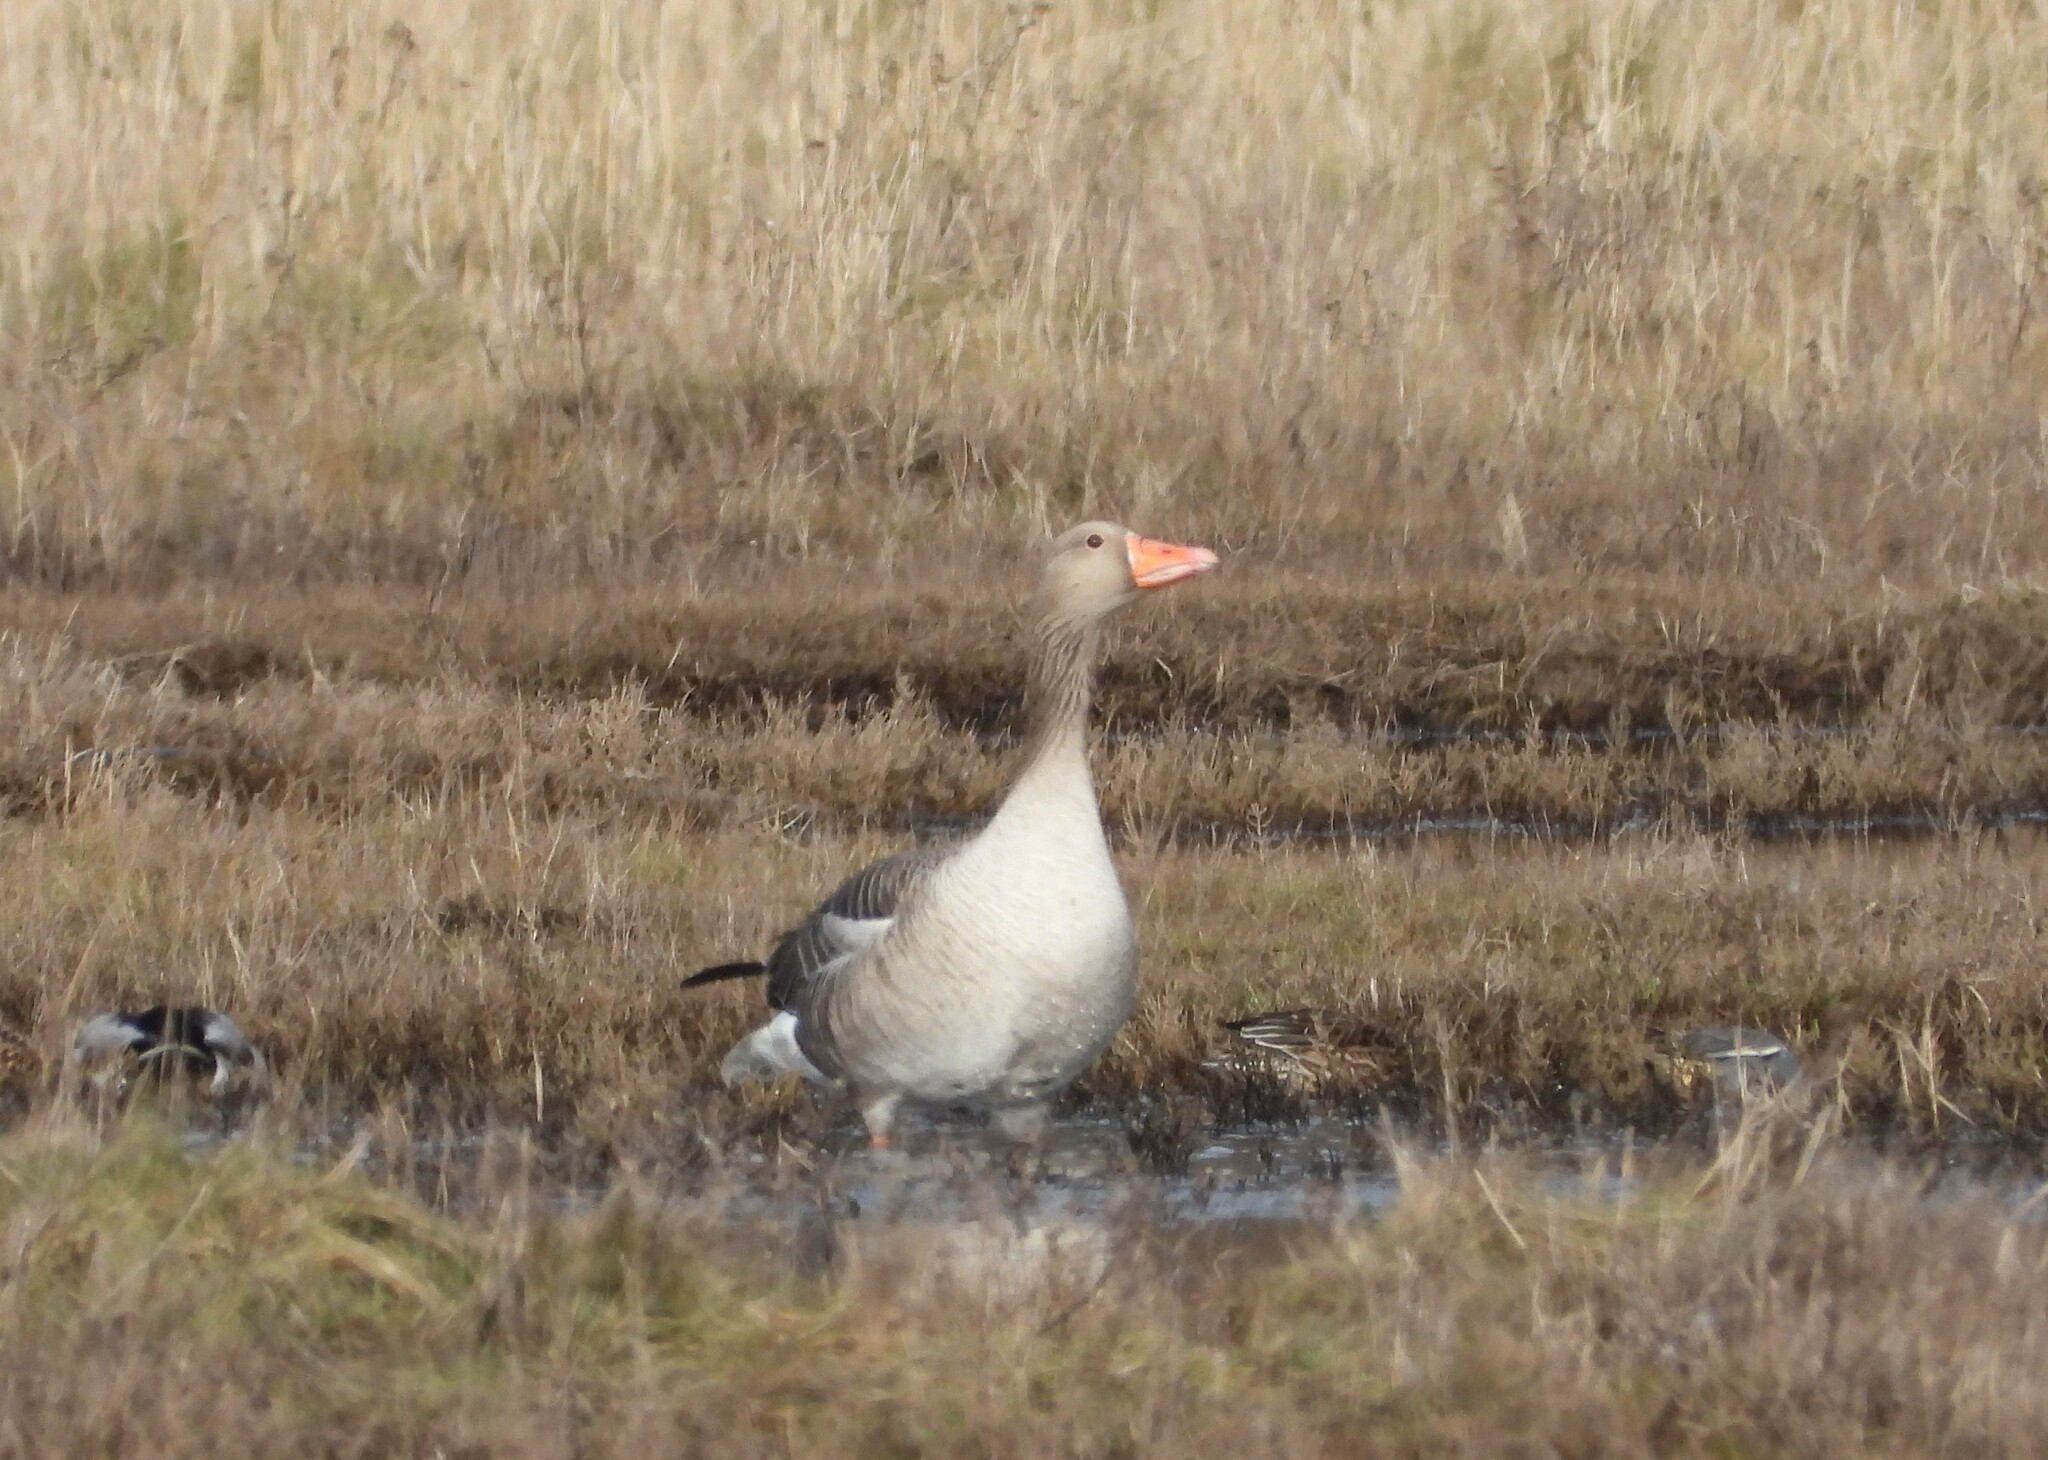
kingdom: Animalia
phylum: Chordata
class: Aves
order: Anseriformes
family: Anatidae
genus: Anser
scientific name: Anser anser
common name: Greylag goose
